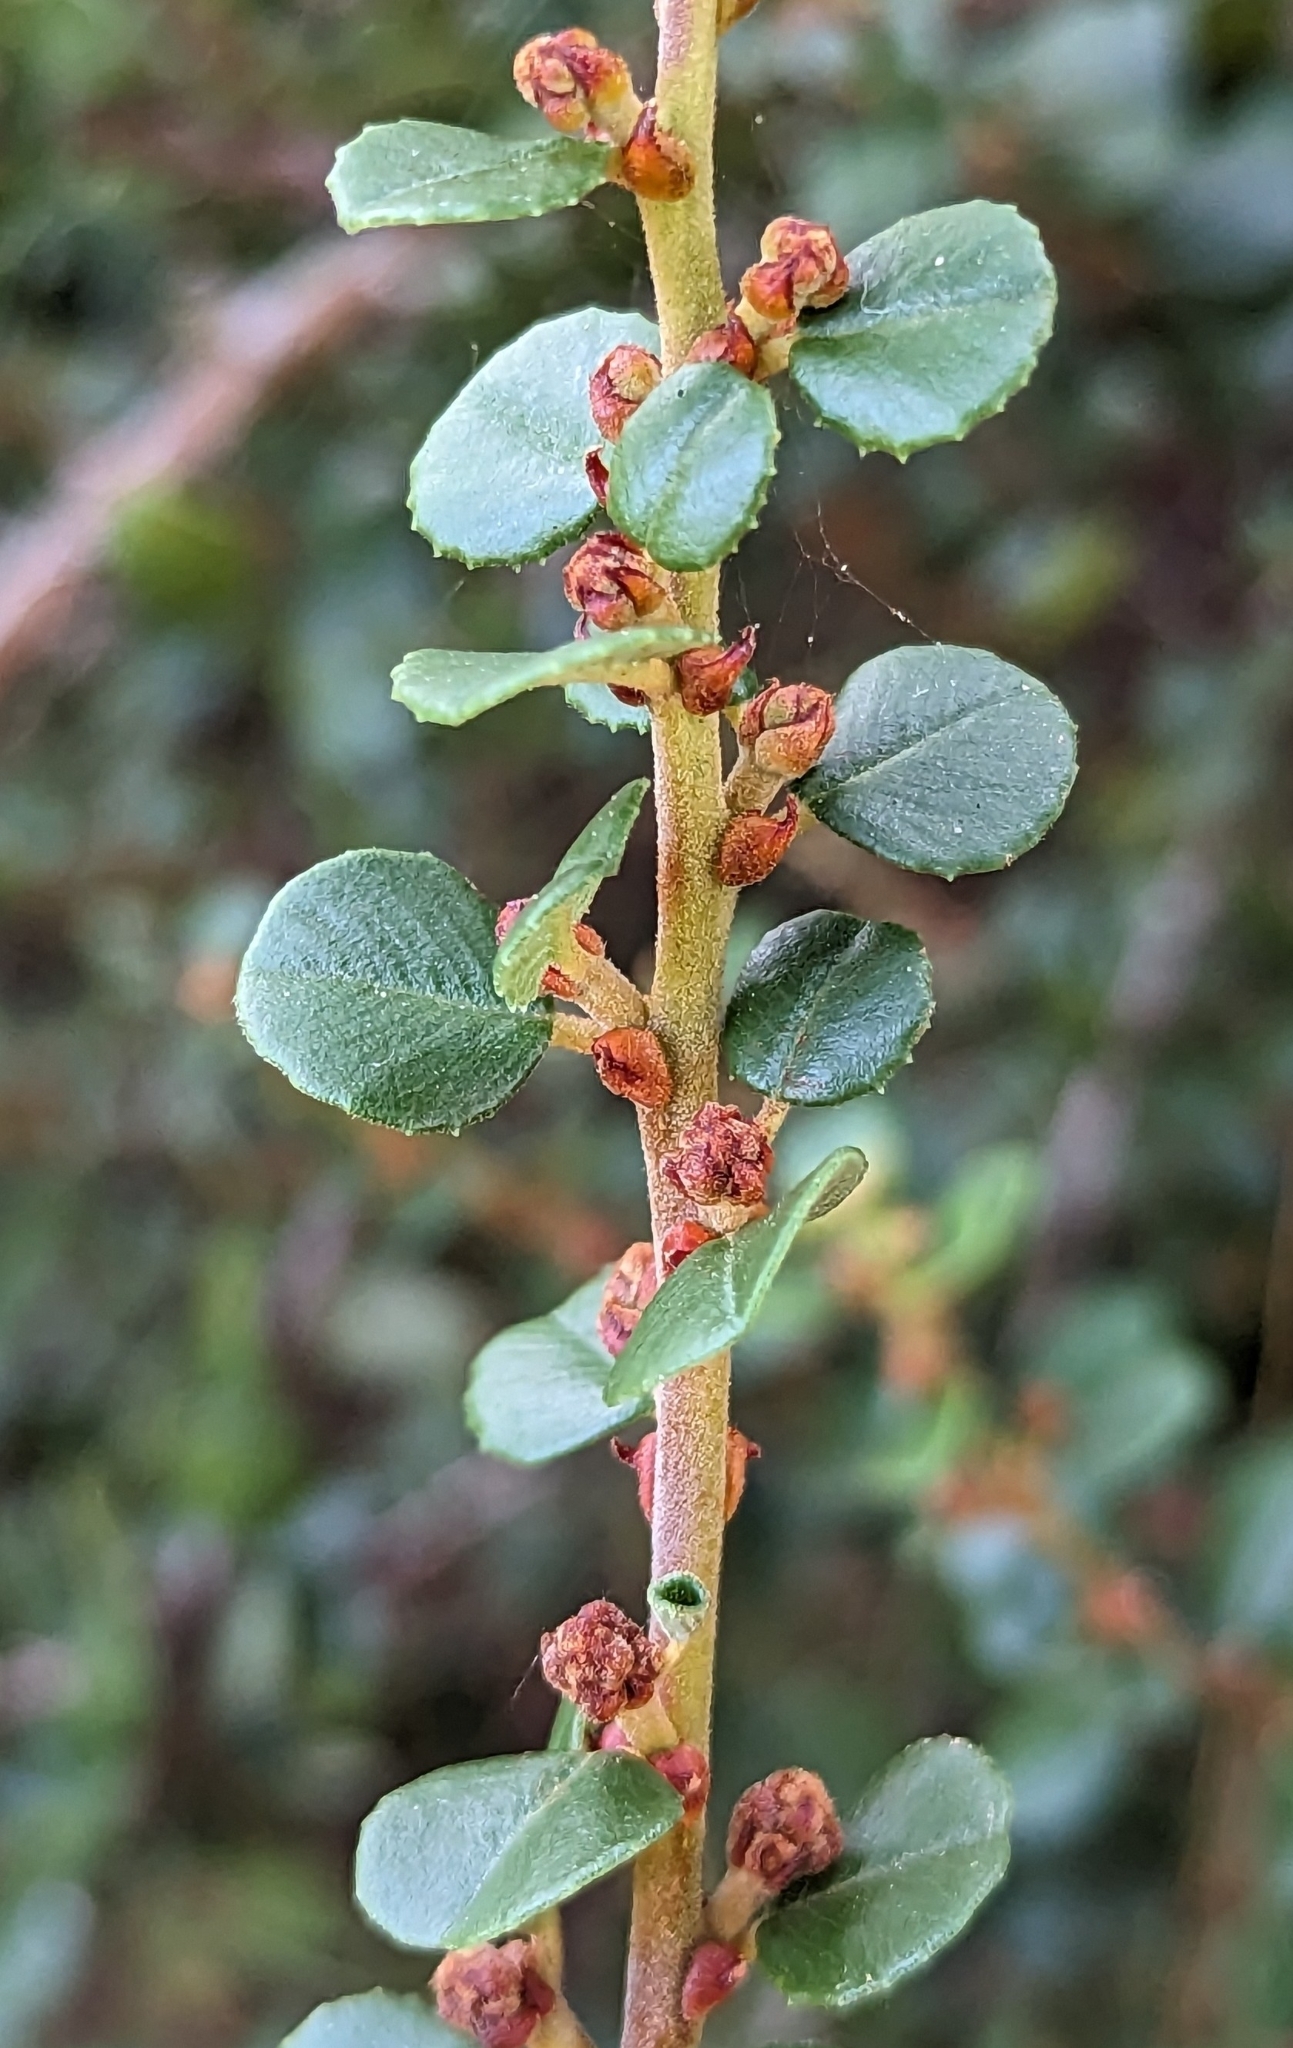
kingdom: Plantae
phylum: Tracheophyta
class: Magnoliopsida
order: Rosales
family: Rhamnaceae
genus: Ceanothus
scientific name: Ceanothus verrucosus
